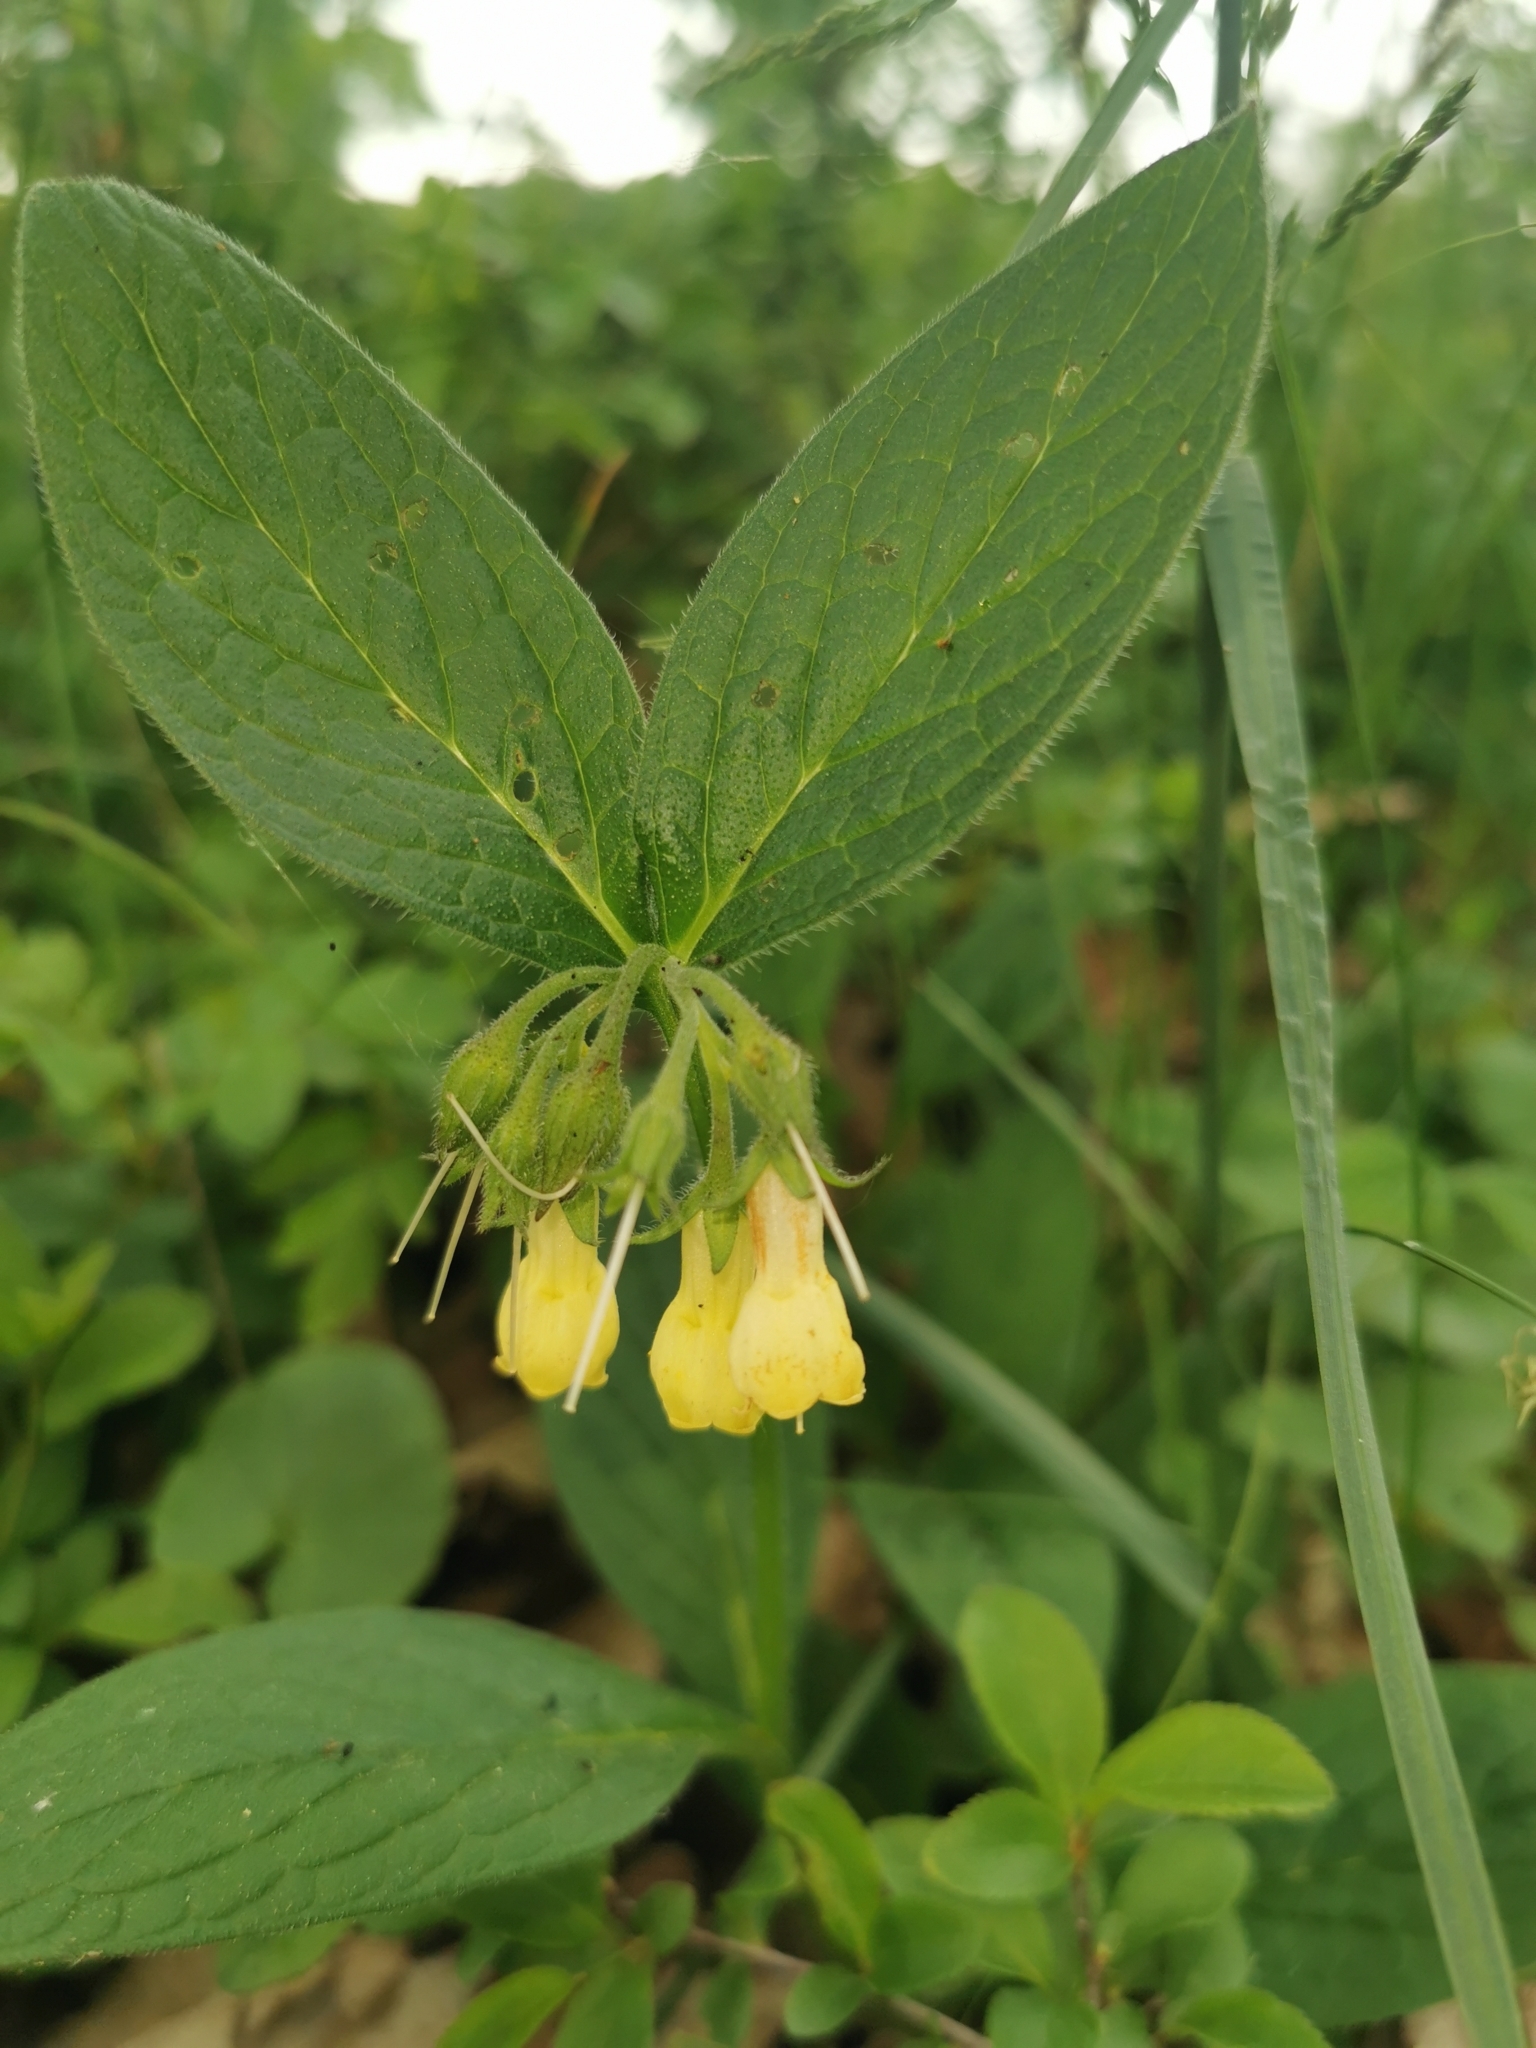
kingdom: Plantae
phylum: Tracheophyta
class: Magnoliopsida
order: Boraginales
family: Boraginaceae
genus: Symphytum
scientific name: Symphytum tuberosum
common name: Tuberous comfrey
